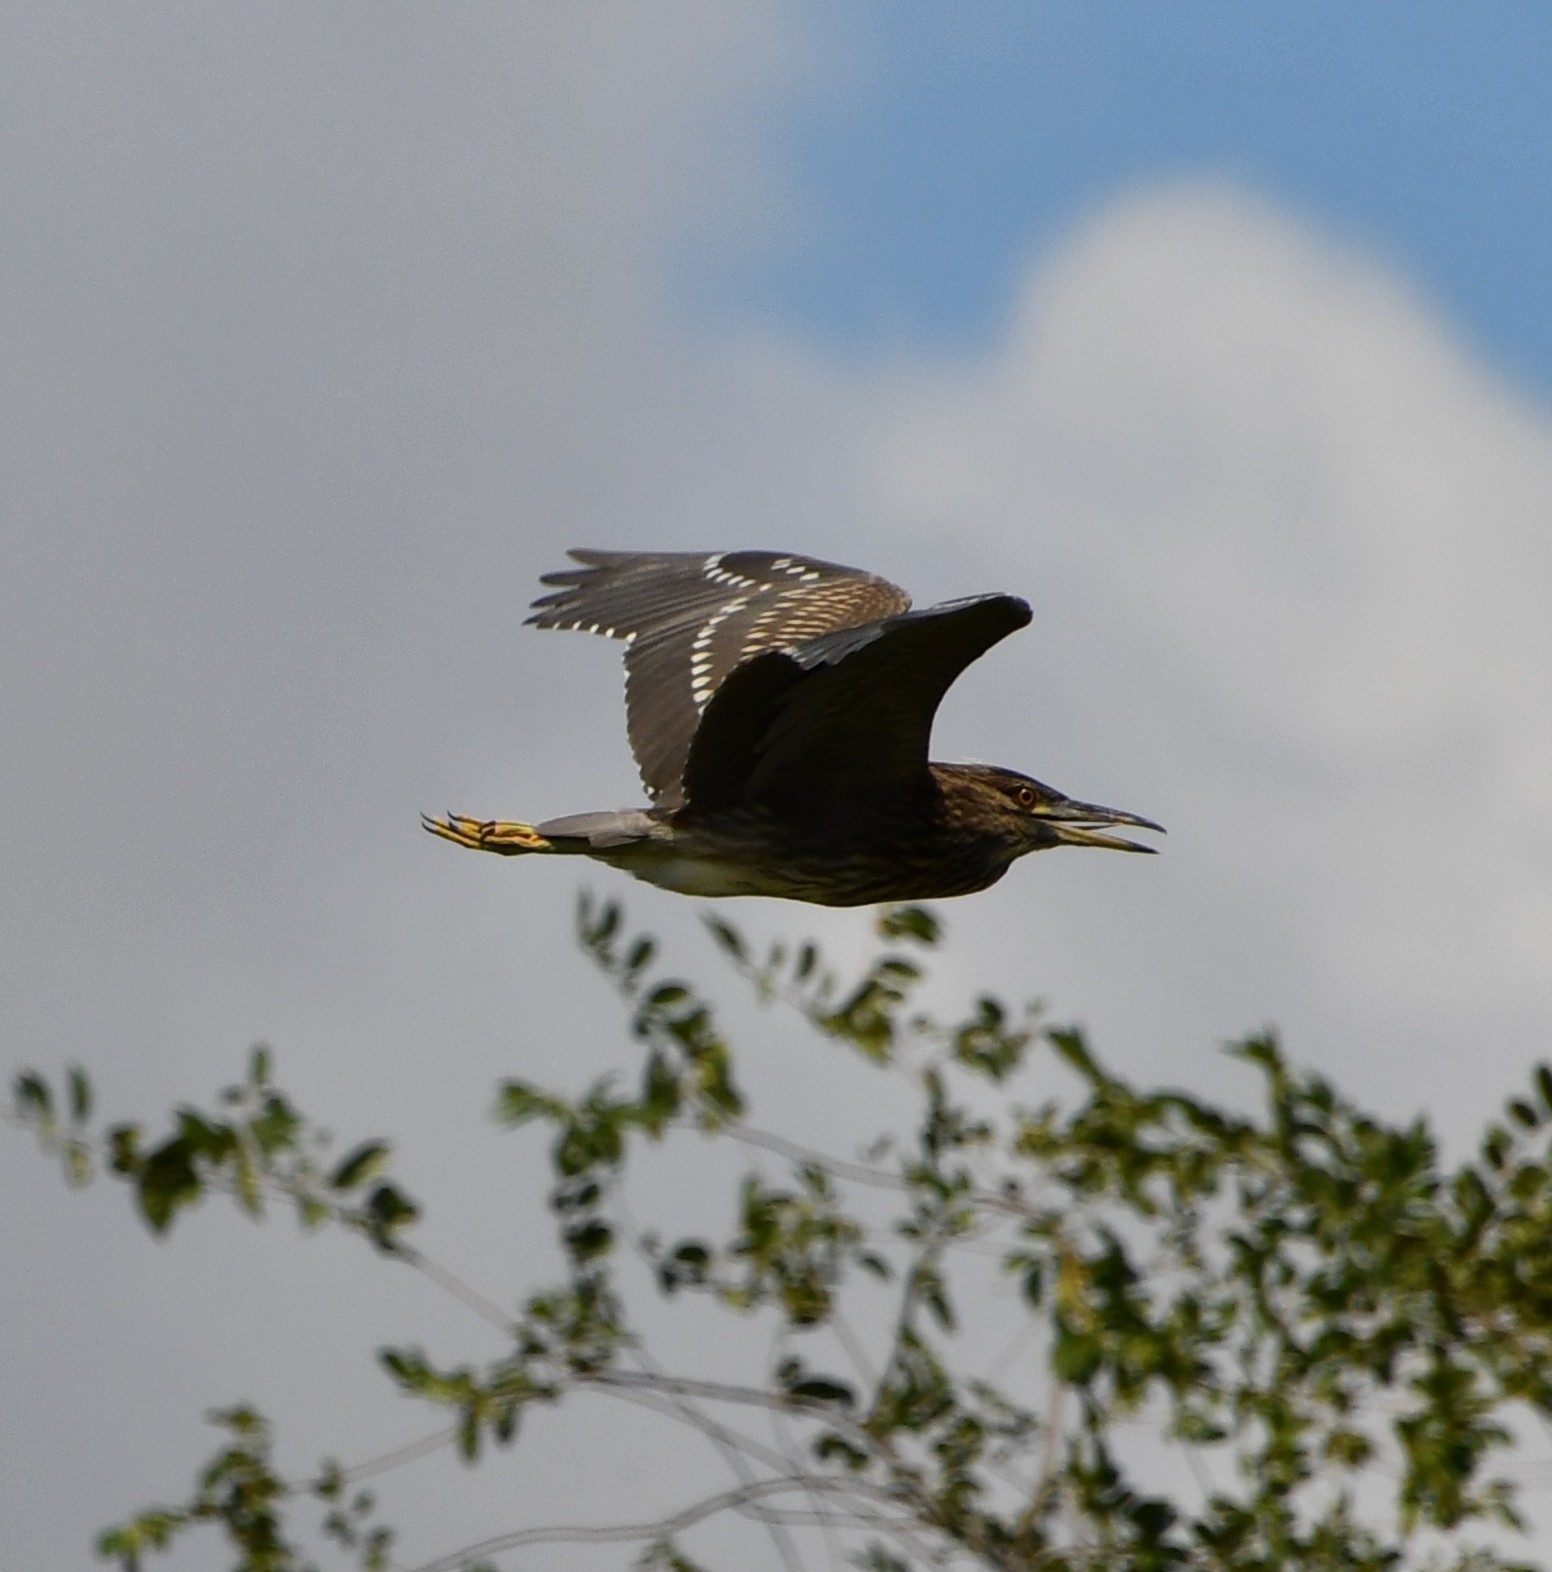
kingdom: Animalia
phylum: Chordata
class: Aves
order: Pelecaniformes
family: Ardeidae
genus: Nycticorax
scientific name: Nycticorax nycticorax
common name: Black-crowned night heron
